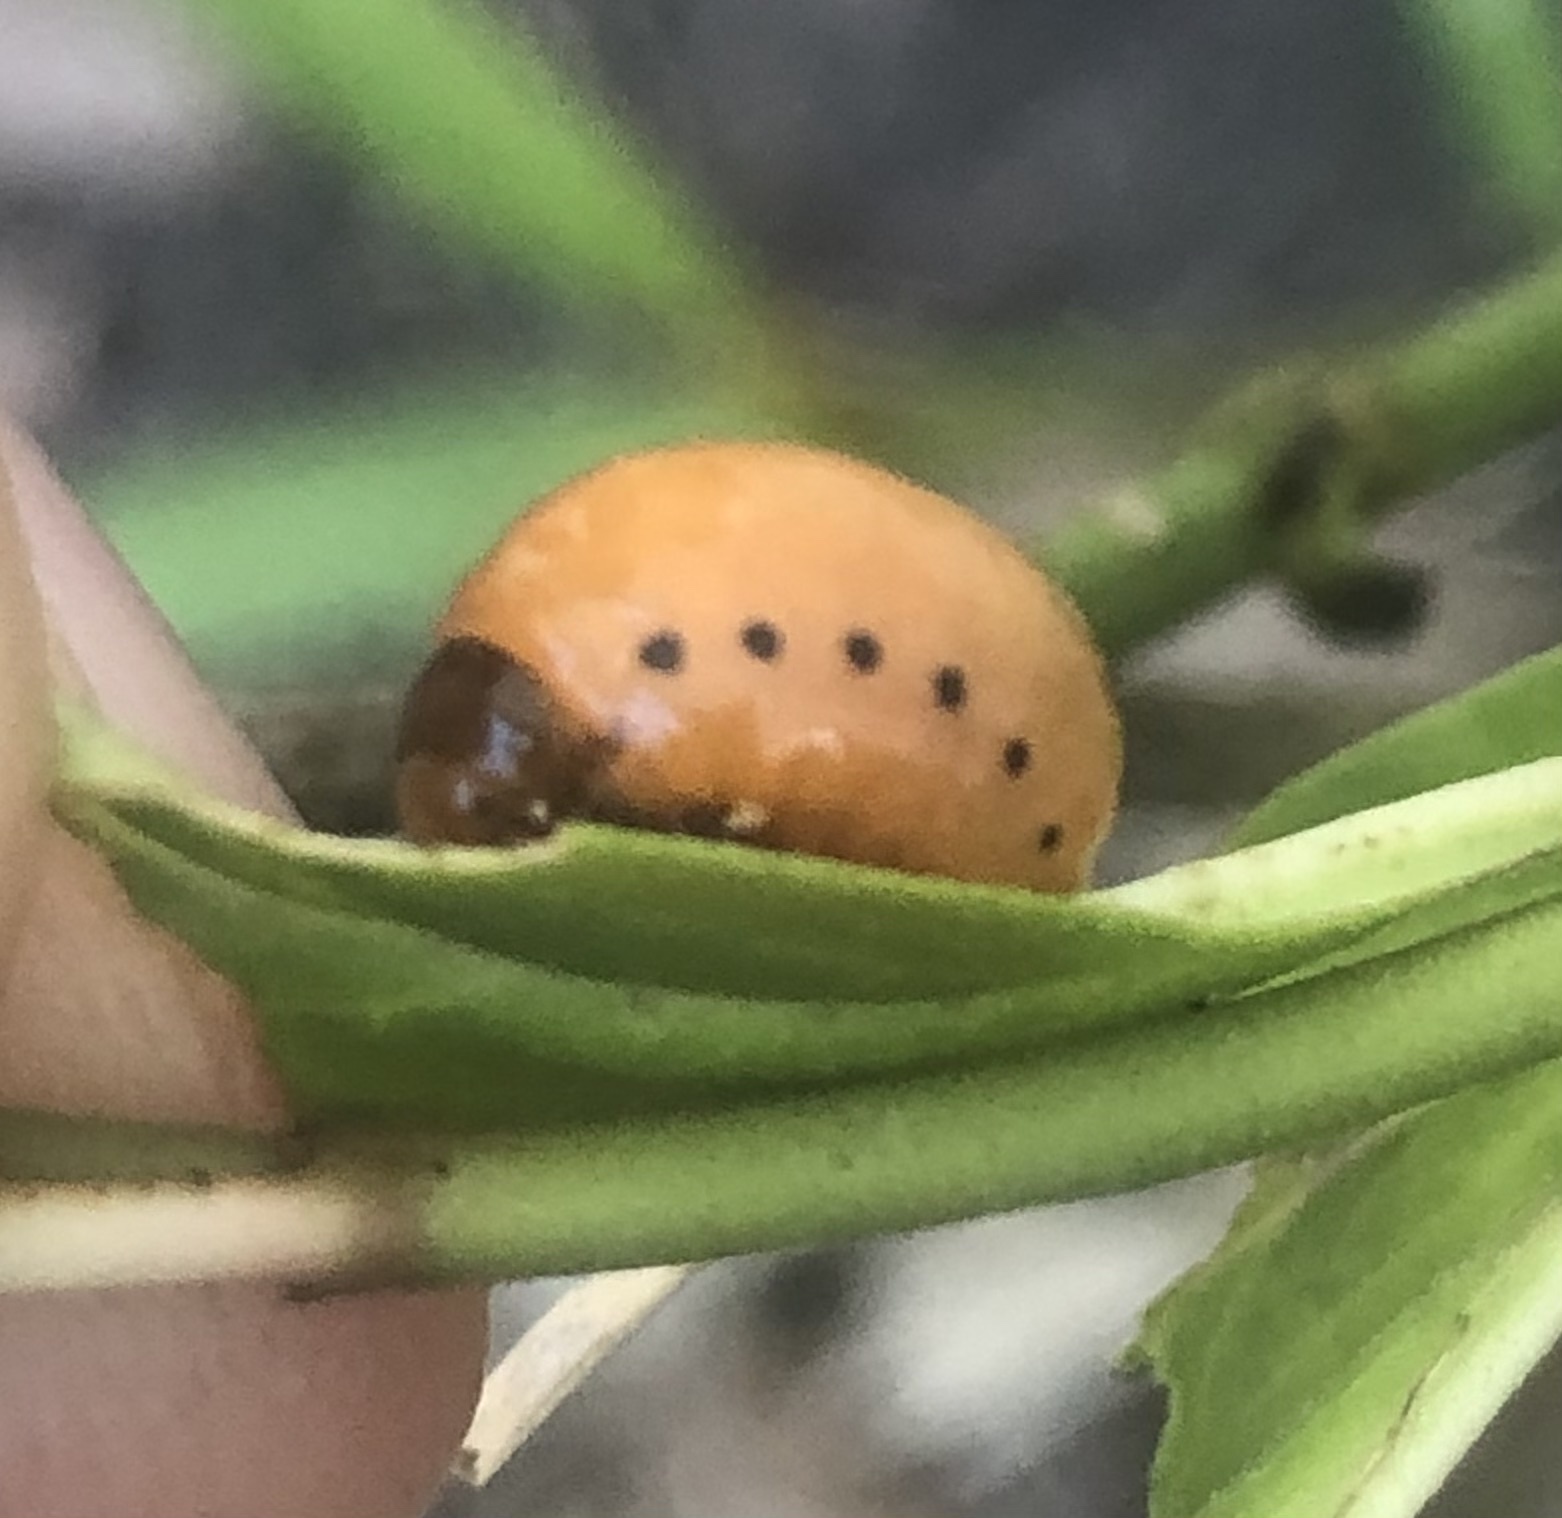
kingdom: Animalia
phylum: Arthropoda
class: Insecta
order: Coleoptera
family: Chrysomelidae
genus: Labidomera
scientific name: Labidomera clivicollis
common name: Swamp milkweed leaf beetle
